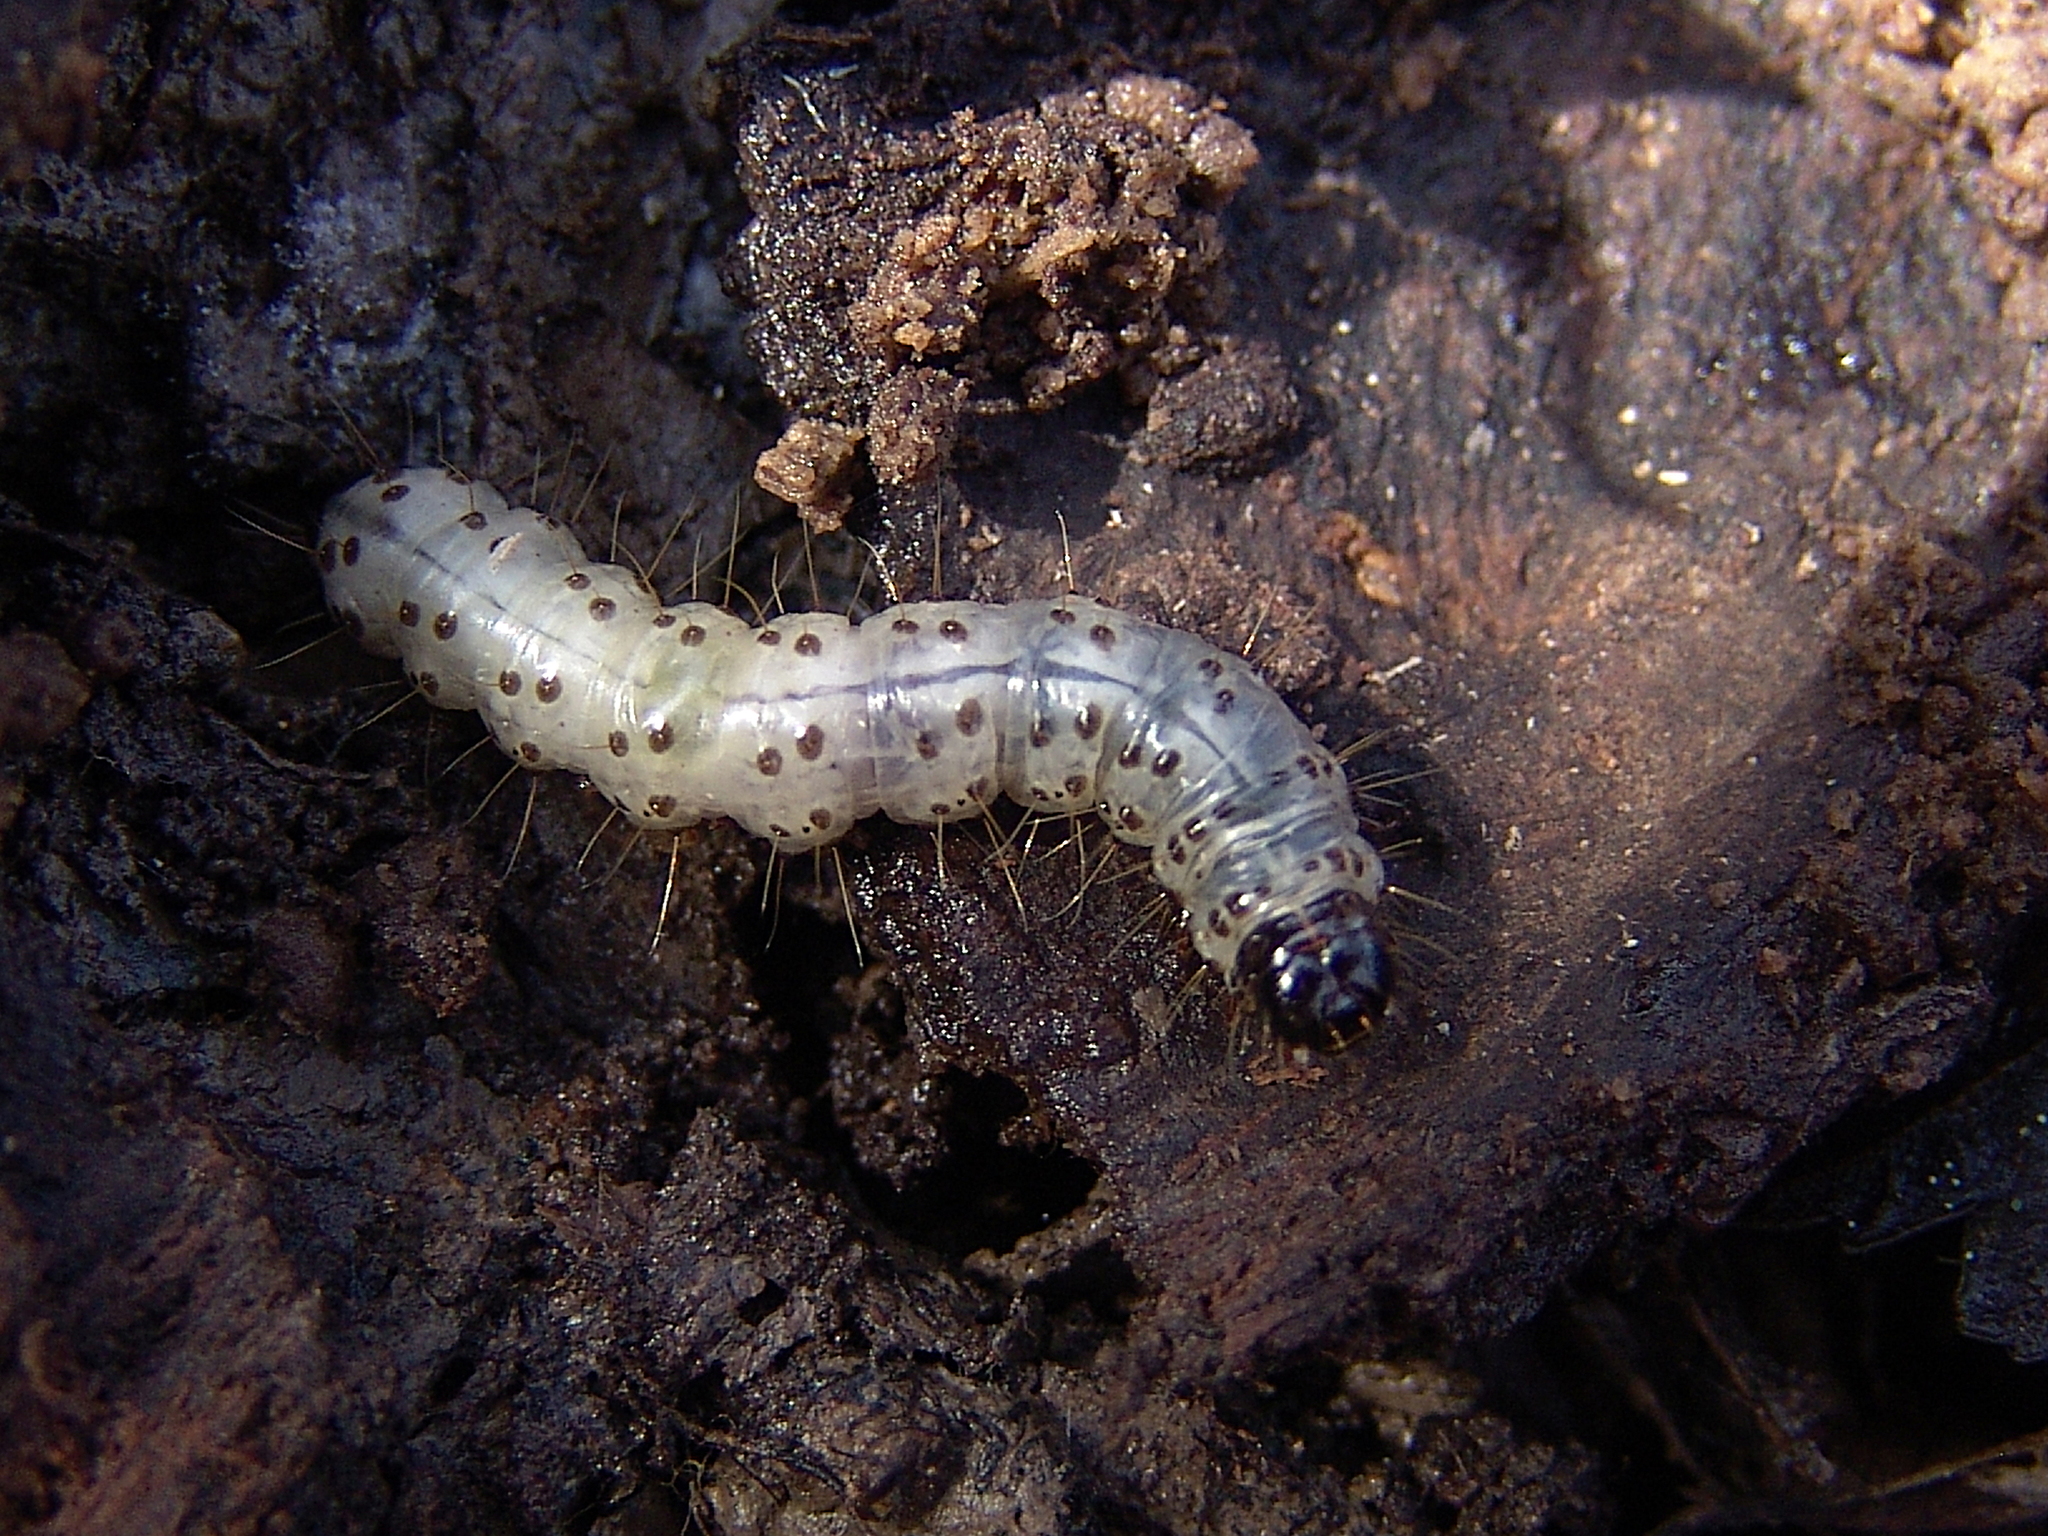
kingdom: Animalia
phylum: Arthropoda
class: Insecta
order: Lepidoptera
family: Erebidae
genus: Scolecocampa
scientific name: Scolecocampa liburna
